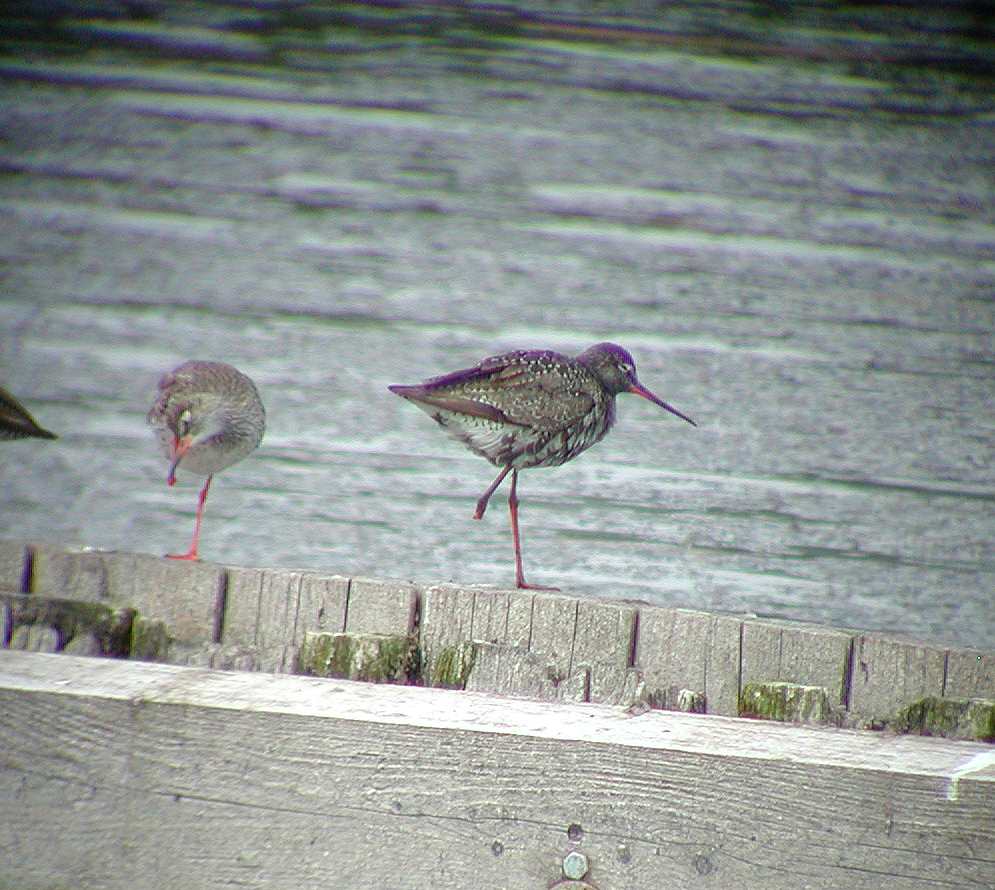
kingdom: Animalia
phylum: Chordata
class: Aves
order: Charadriiformes
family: Scolopacidae
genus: Tringa
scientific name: Tringa erythropus
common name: Spotted redshank
